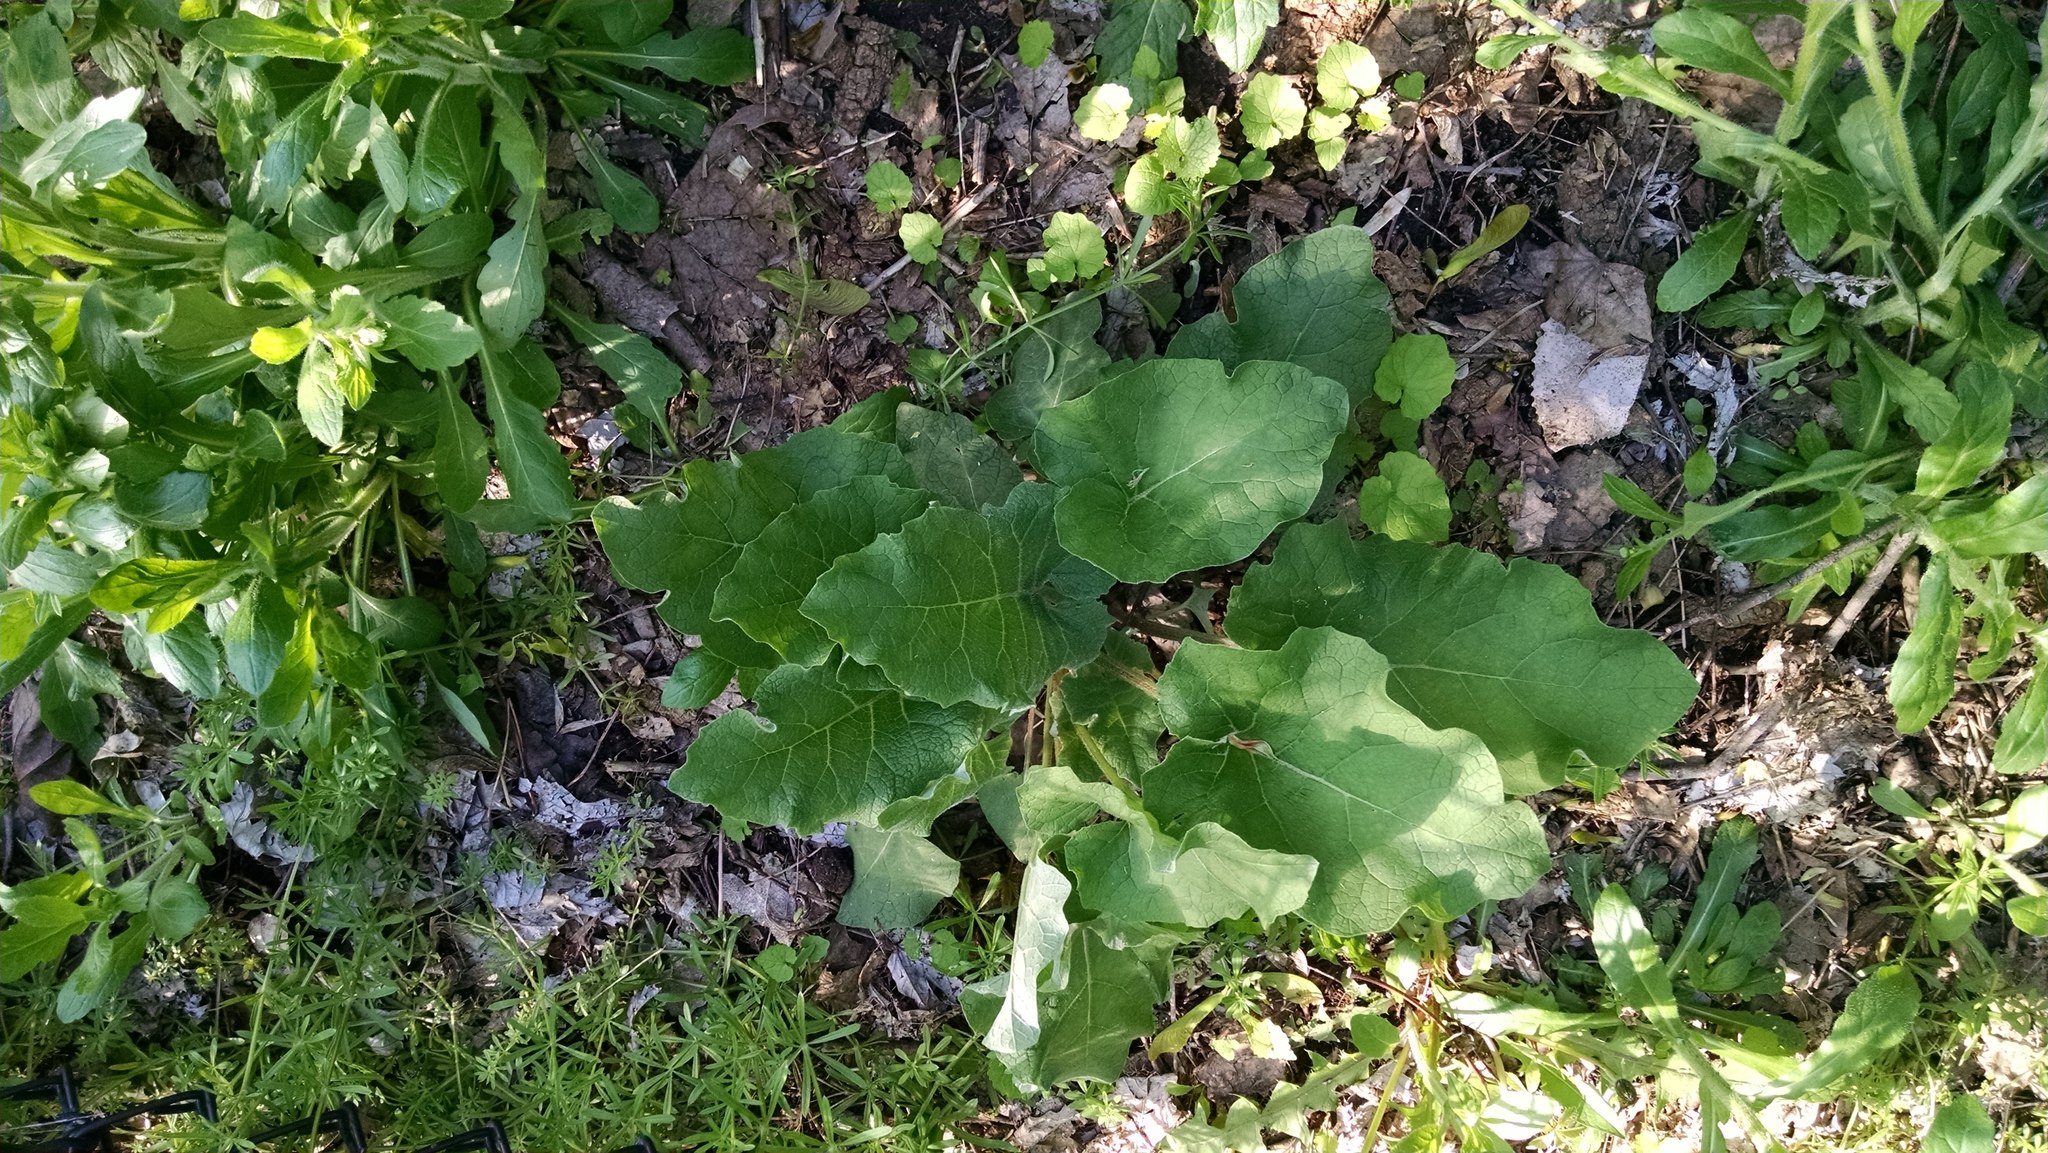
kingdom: Plantae
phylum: Tracheophyta
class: Magnoliopsida
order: Asterales
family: Asteraceae
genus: Arctium
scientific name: Arctium
